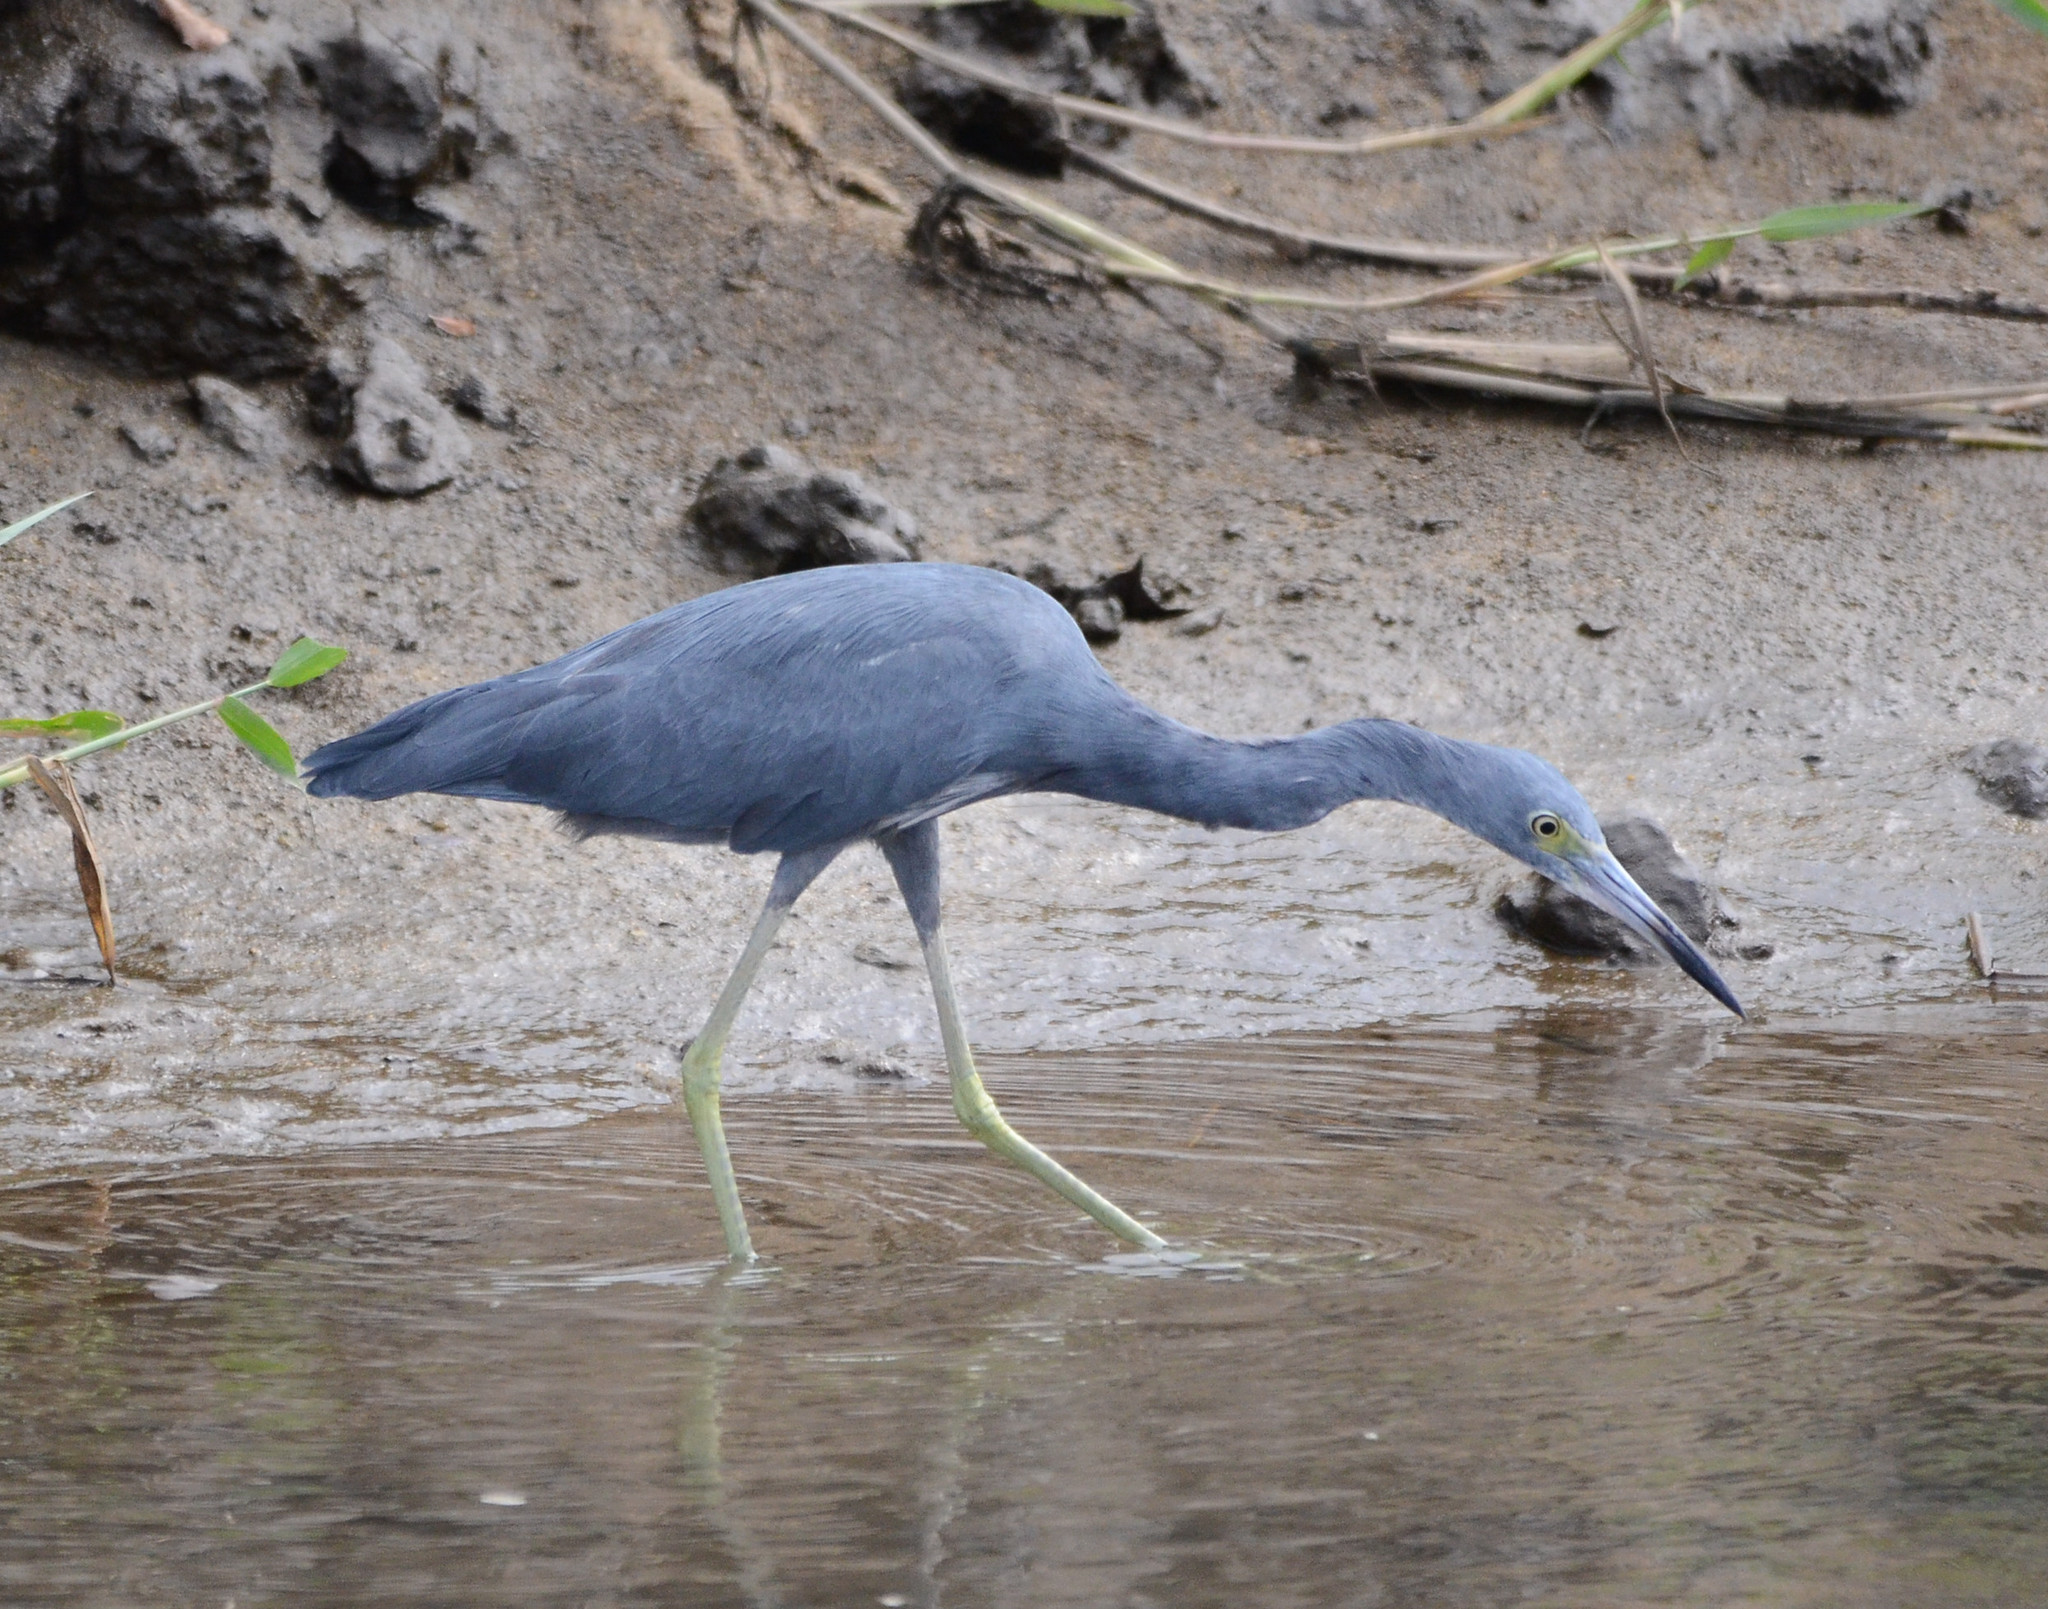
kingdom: Animalia
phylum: Chordata
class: Aves
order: Pelecaniformes
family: Ardeidae
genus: Egretta
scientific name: Egretta caerulea
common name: Little blue heron
